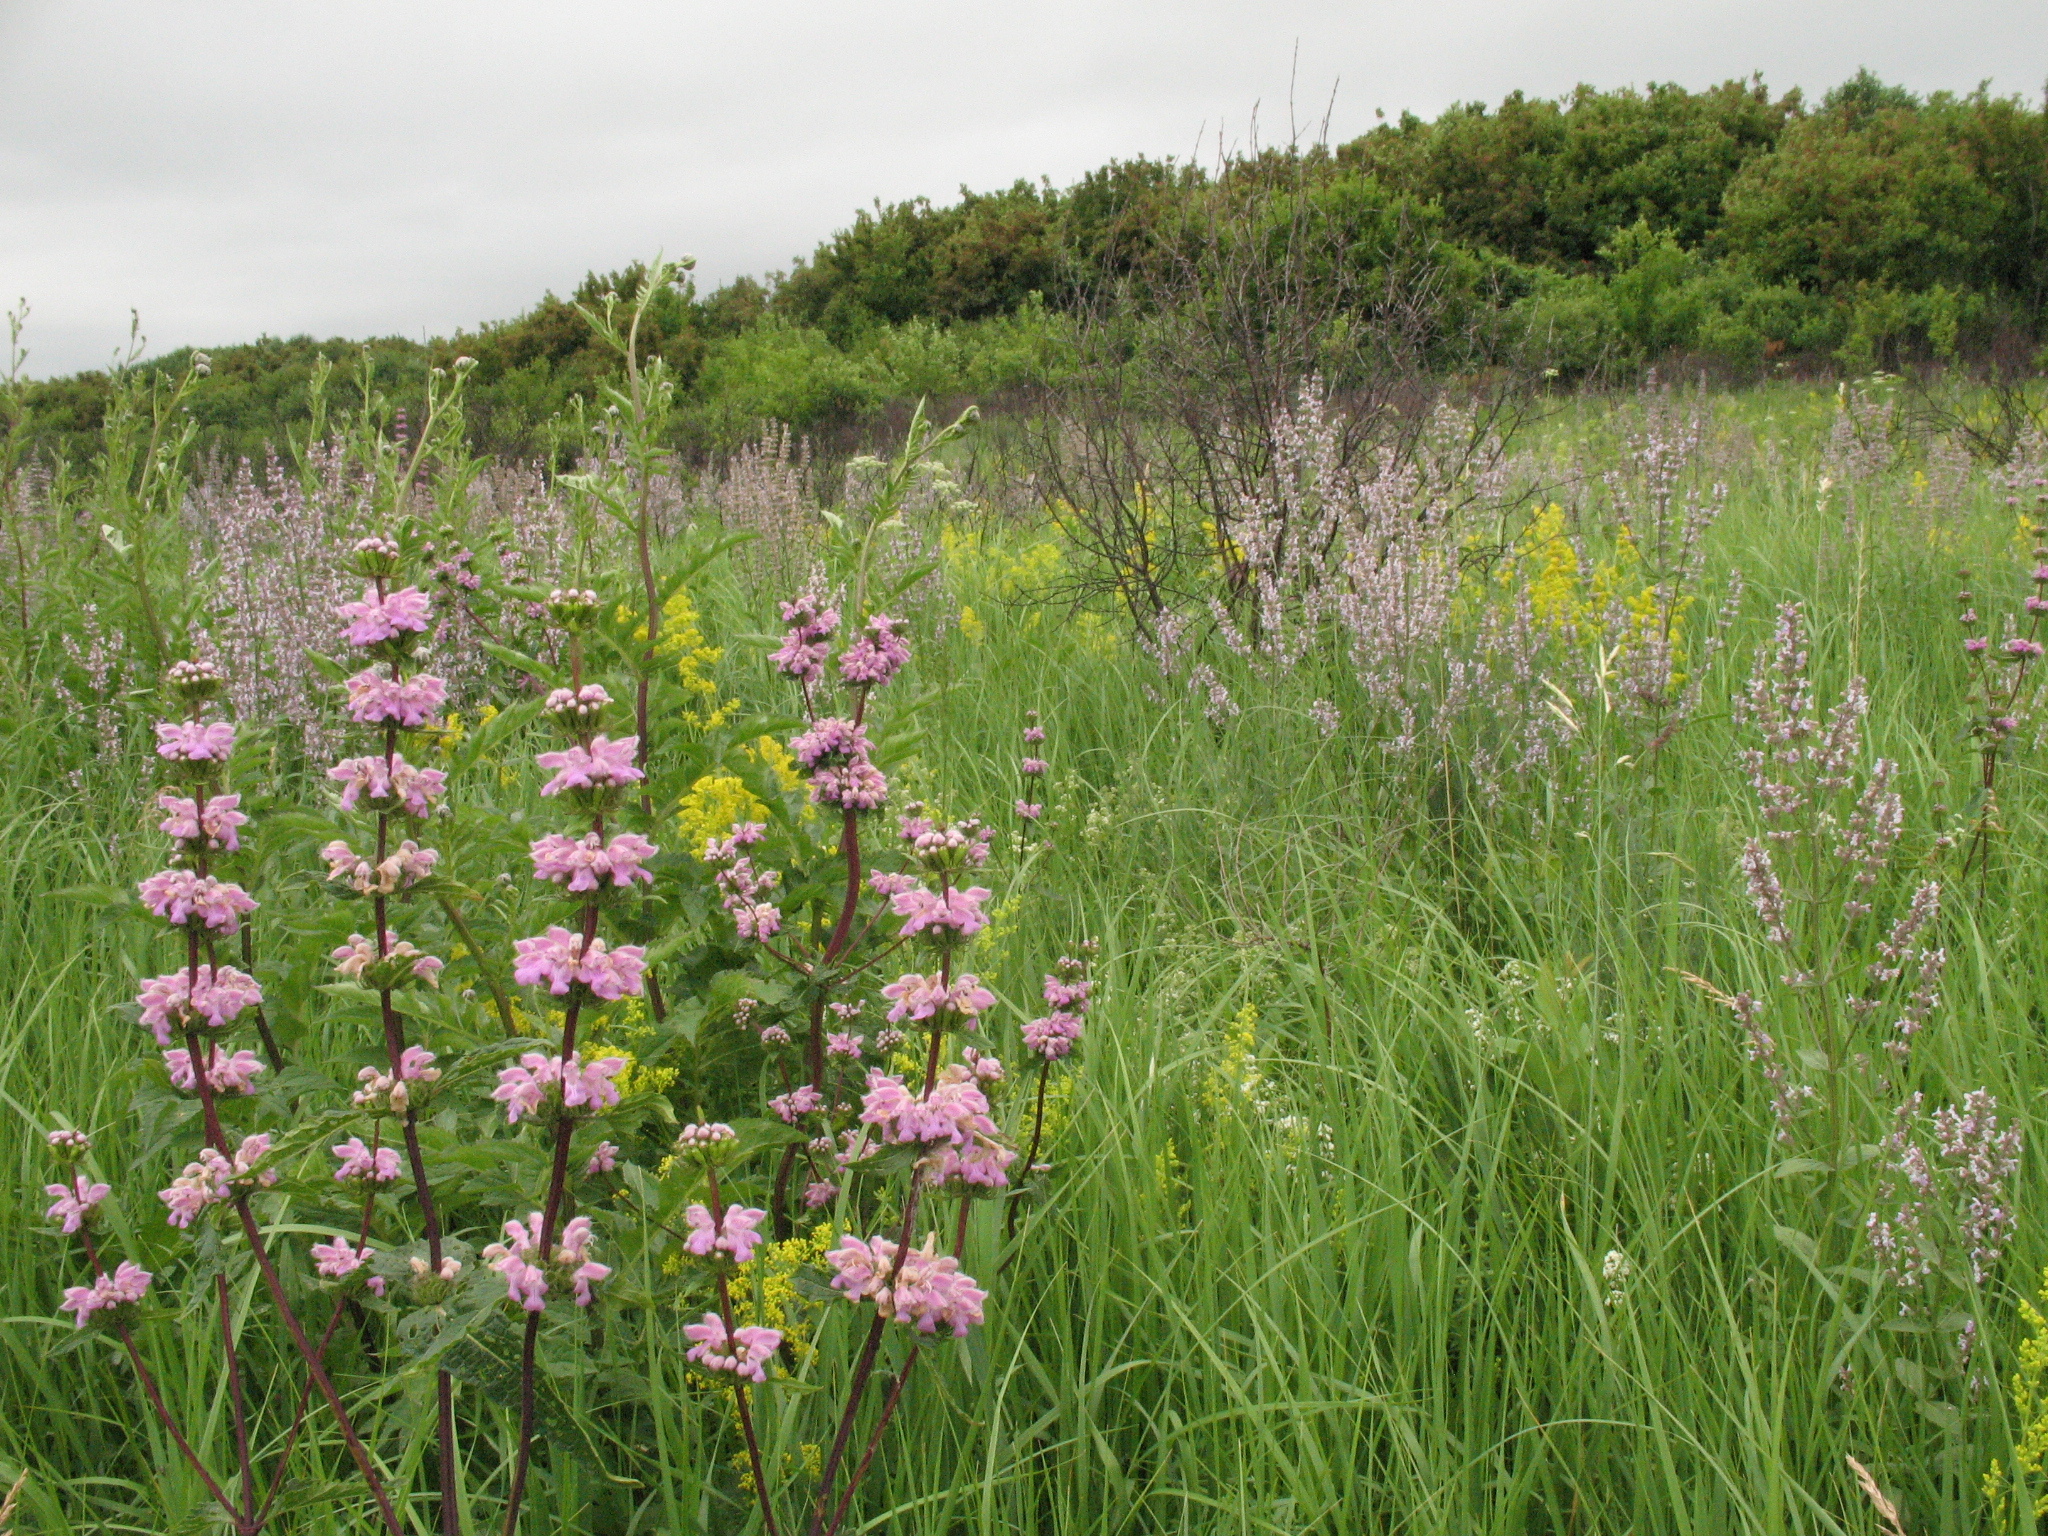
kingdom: Plantae
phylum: Tracheophyta
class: Magnoliopsida
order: Lamiales
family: Lamiaceae
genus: Phlomoides
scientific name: Phlomoides tuberosa
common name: Tuberous jerusalem sage
